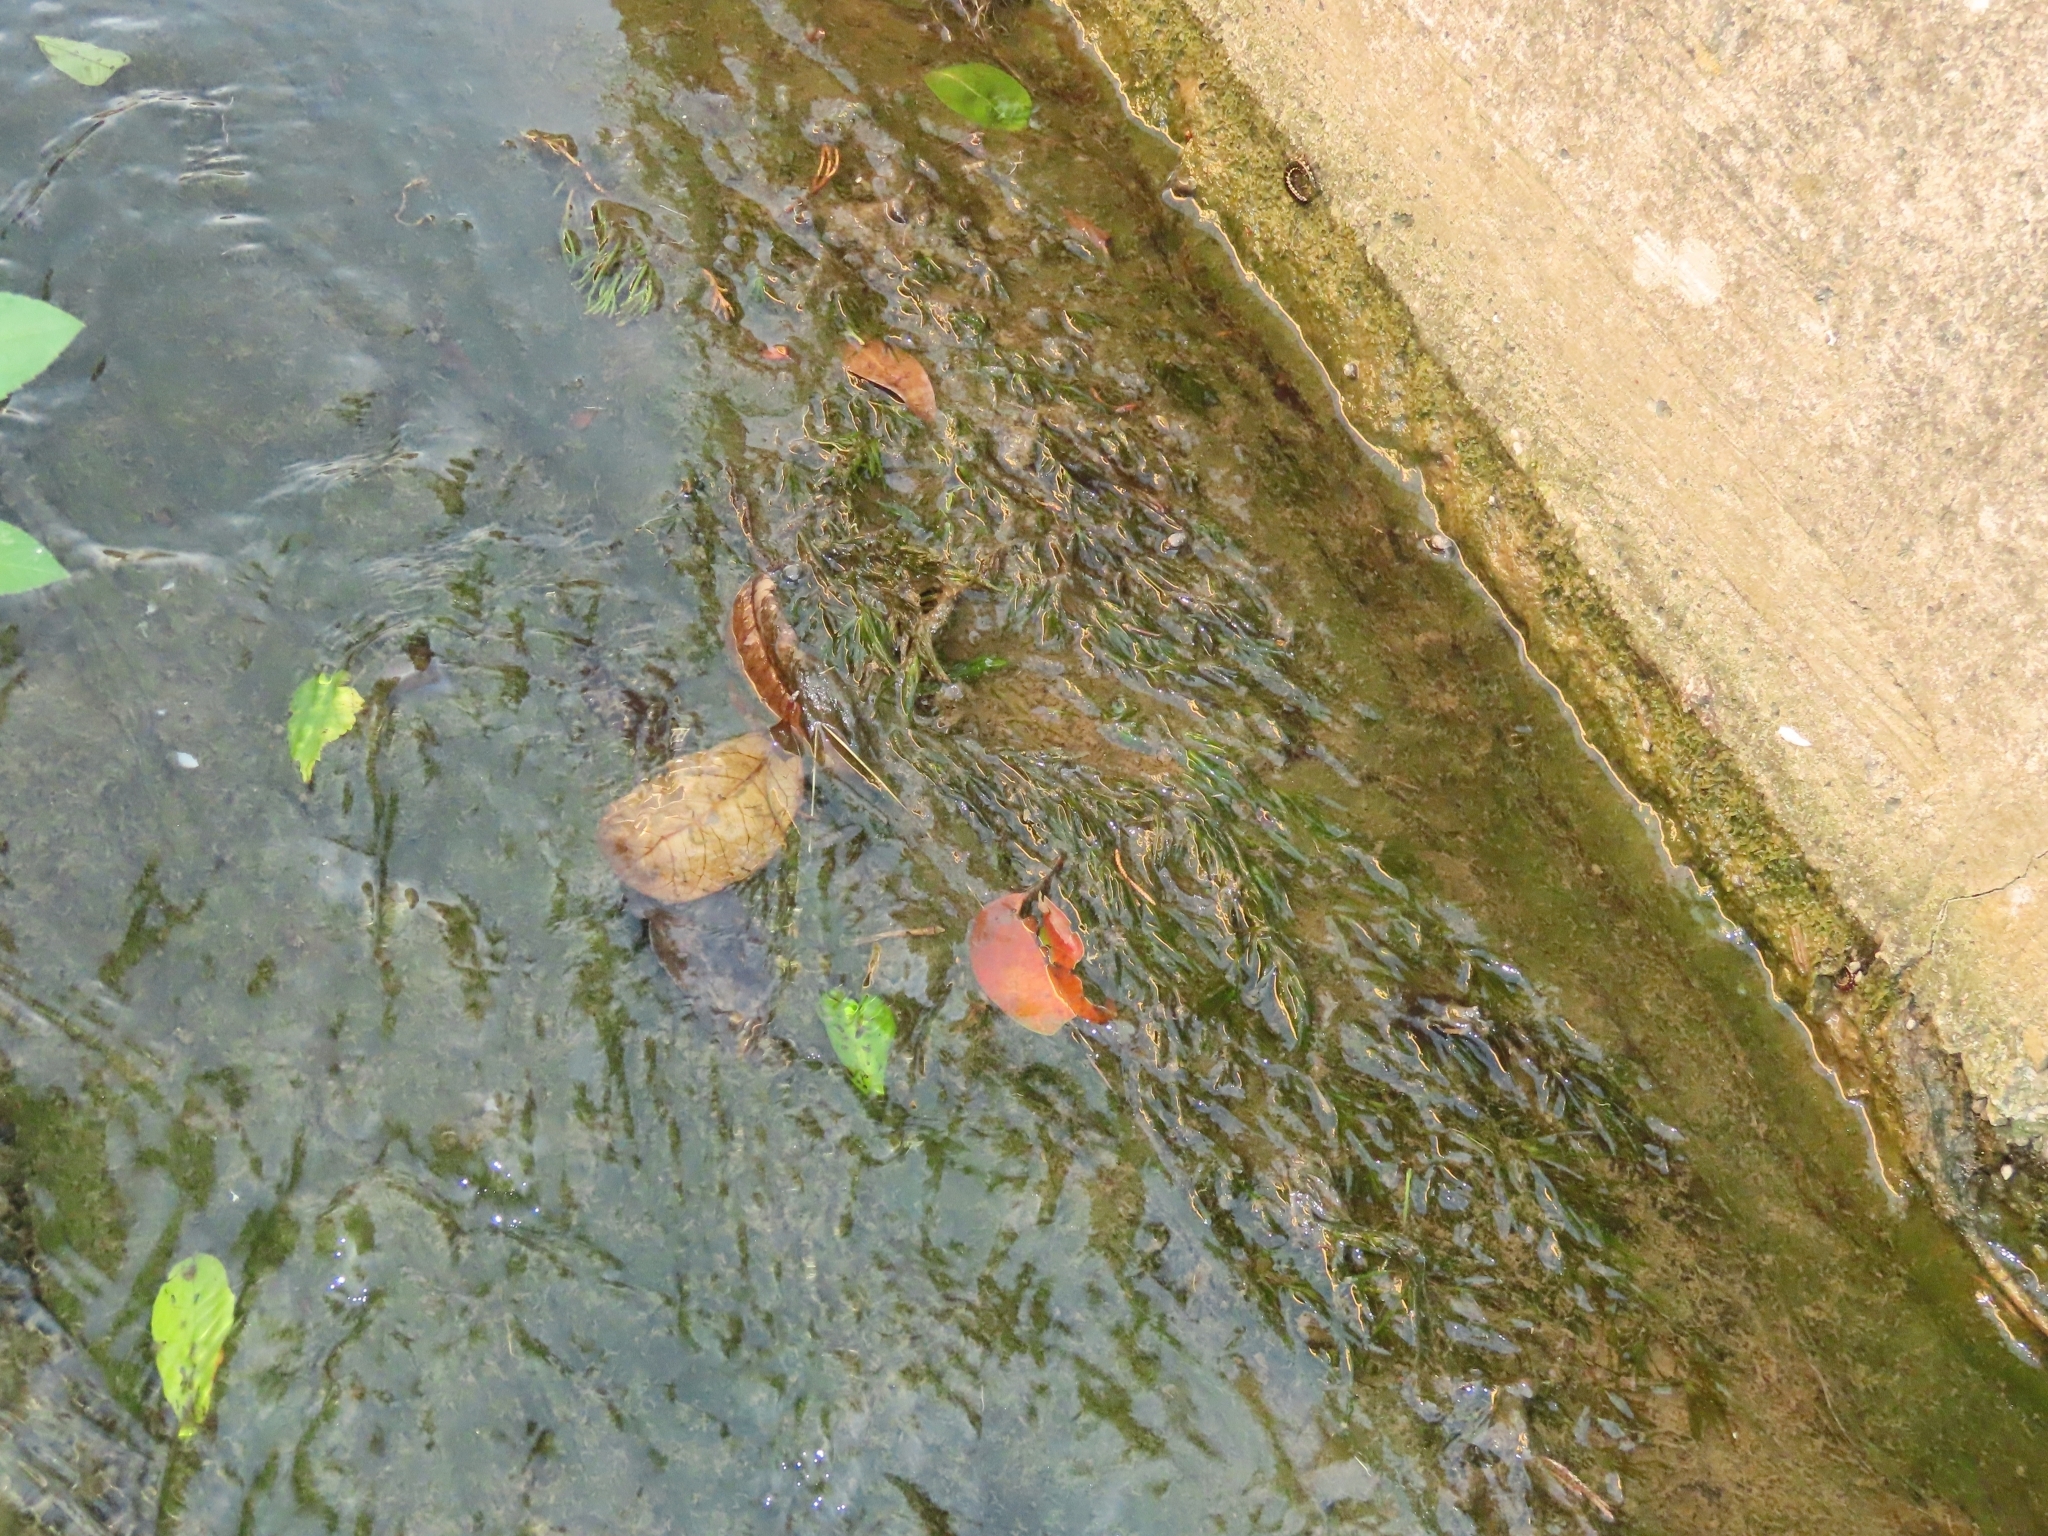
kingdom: Plantae
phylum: Tracheophyta
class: Liliopsida
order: Alismatales
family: Hydrocharitaceae
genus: Najas
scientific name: Najas guadalupensis
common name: Southern naiad
